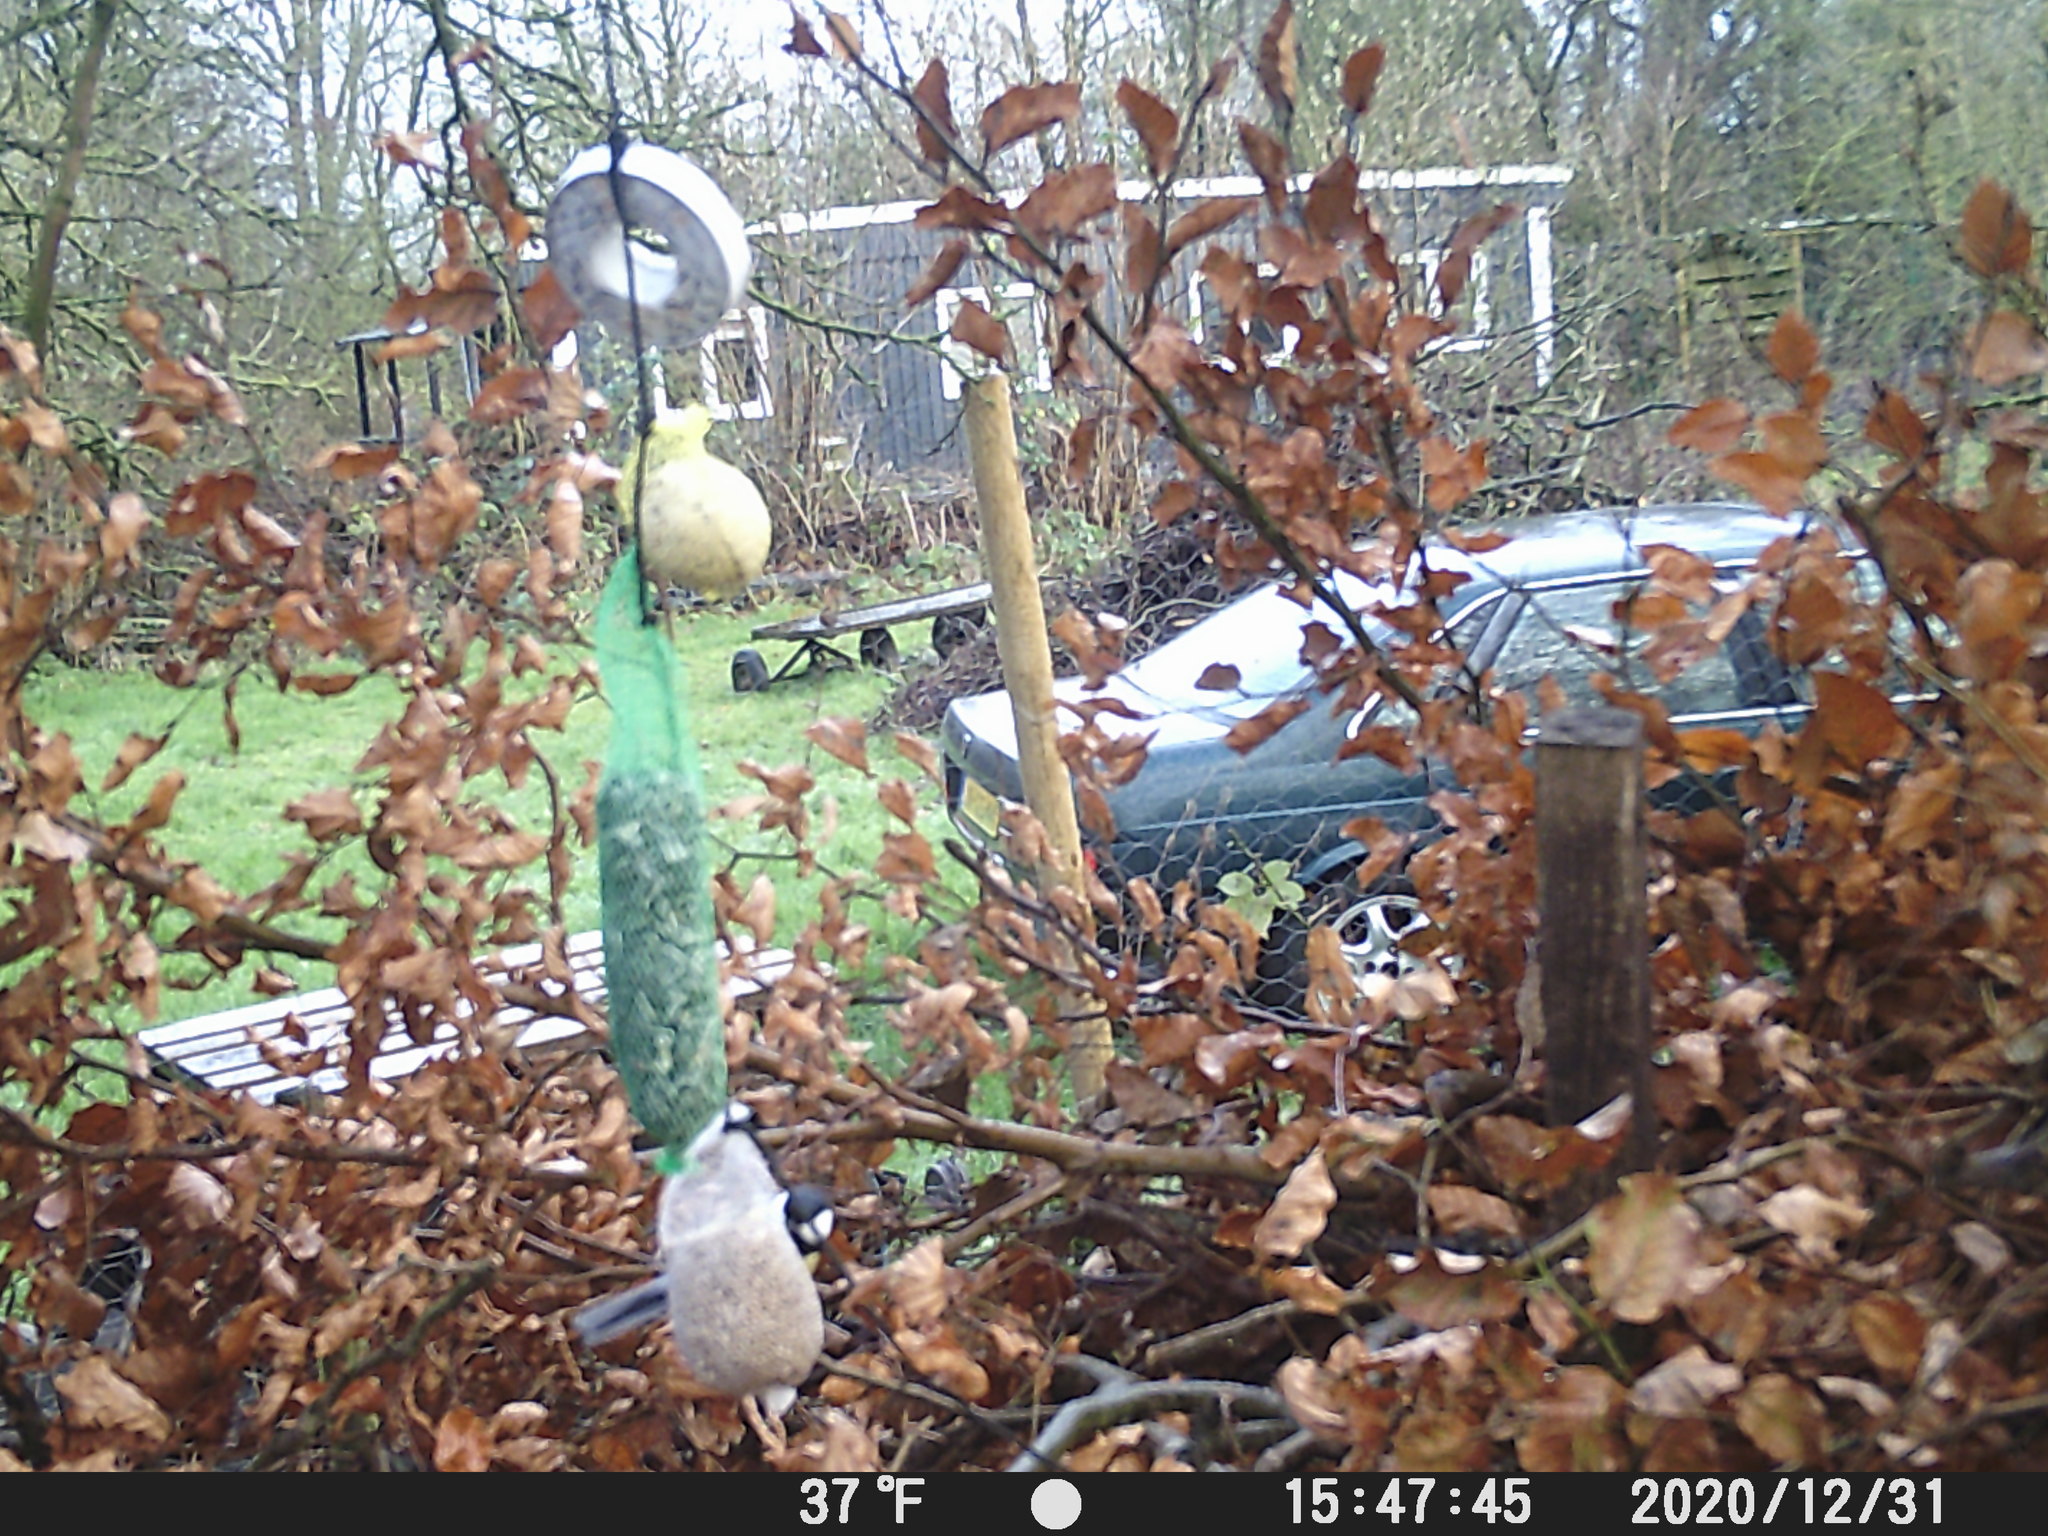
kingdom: Animalia
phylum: Chordata
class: Aves
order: Passeriformes
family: Paridae
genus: Parus
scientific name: Parus major
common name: Great tit
